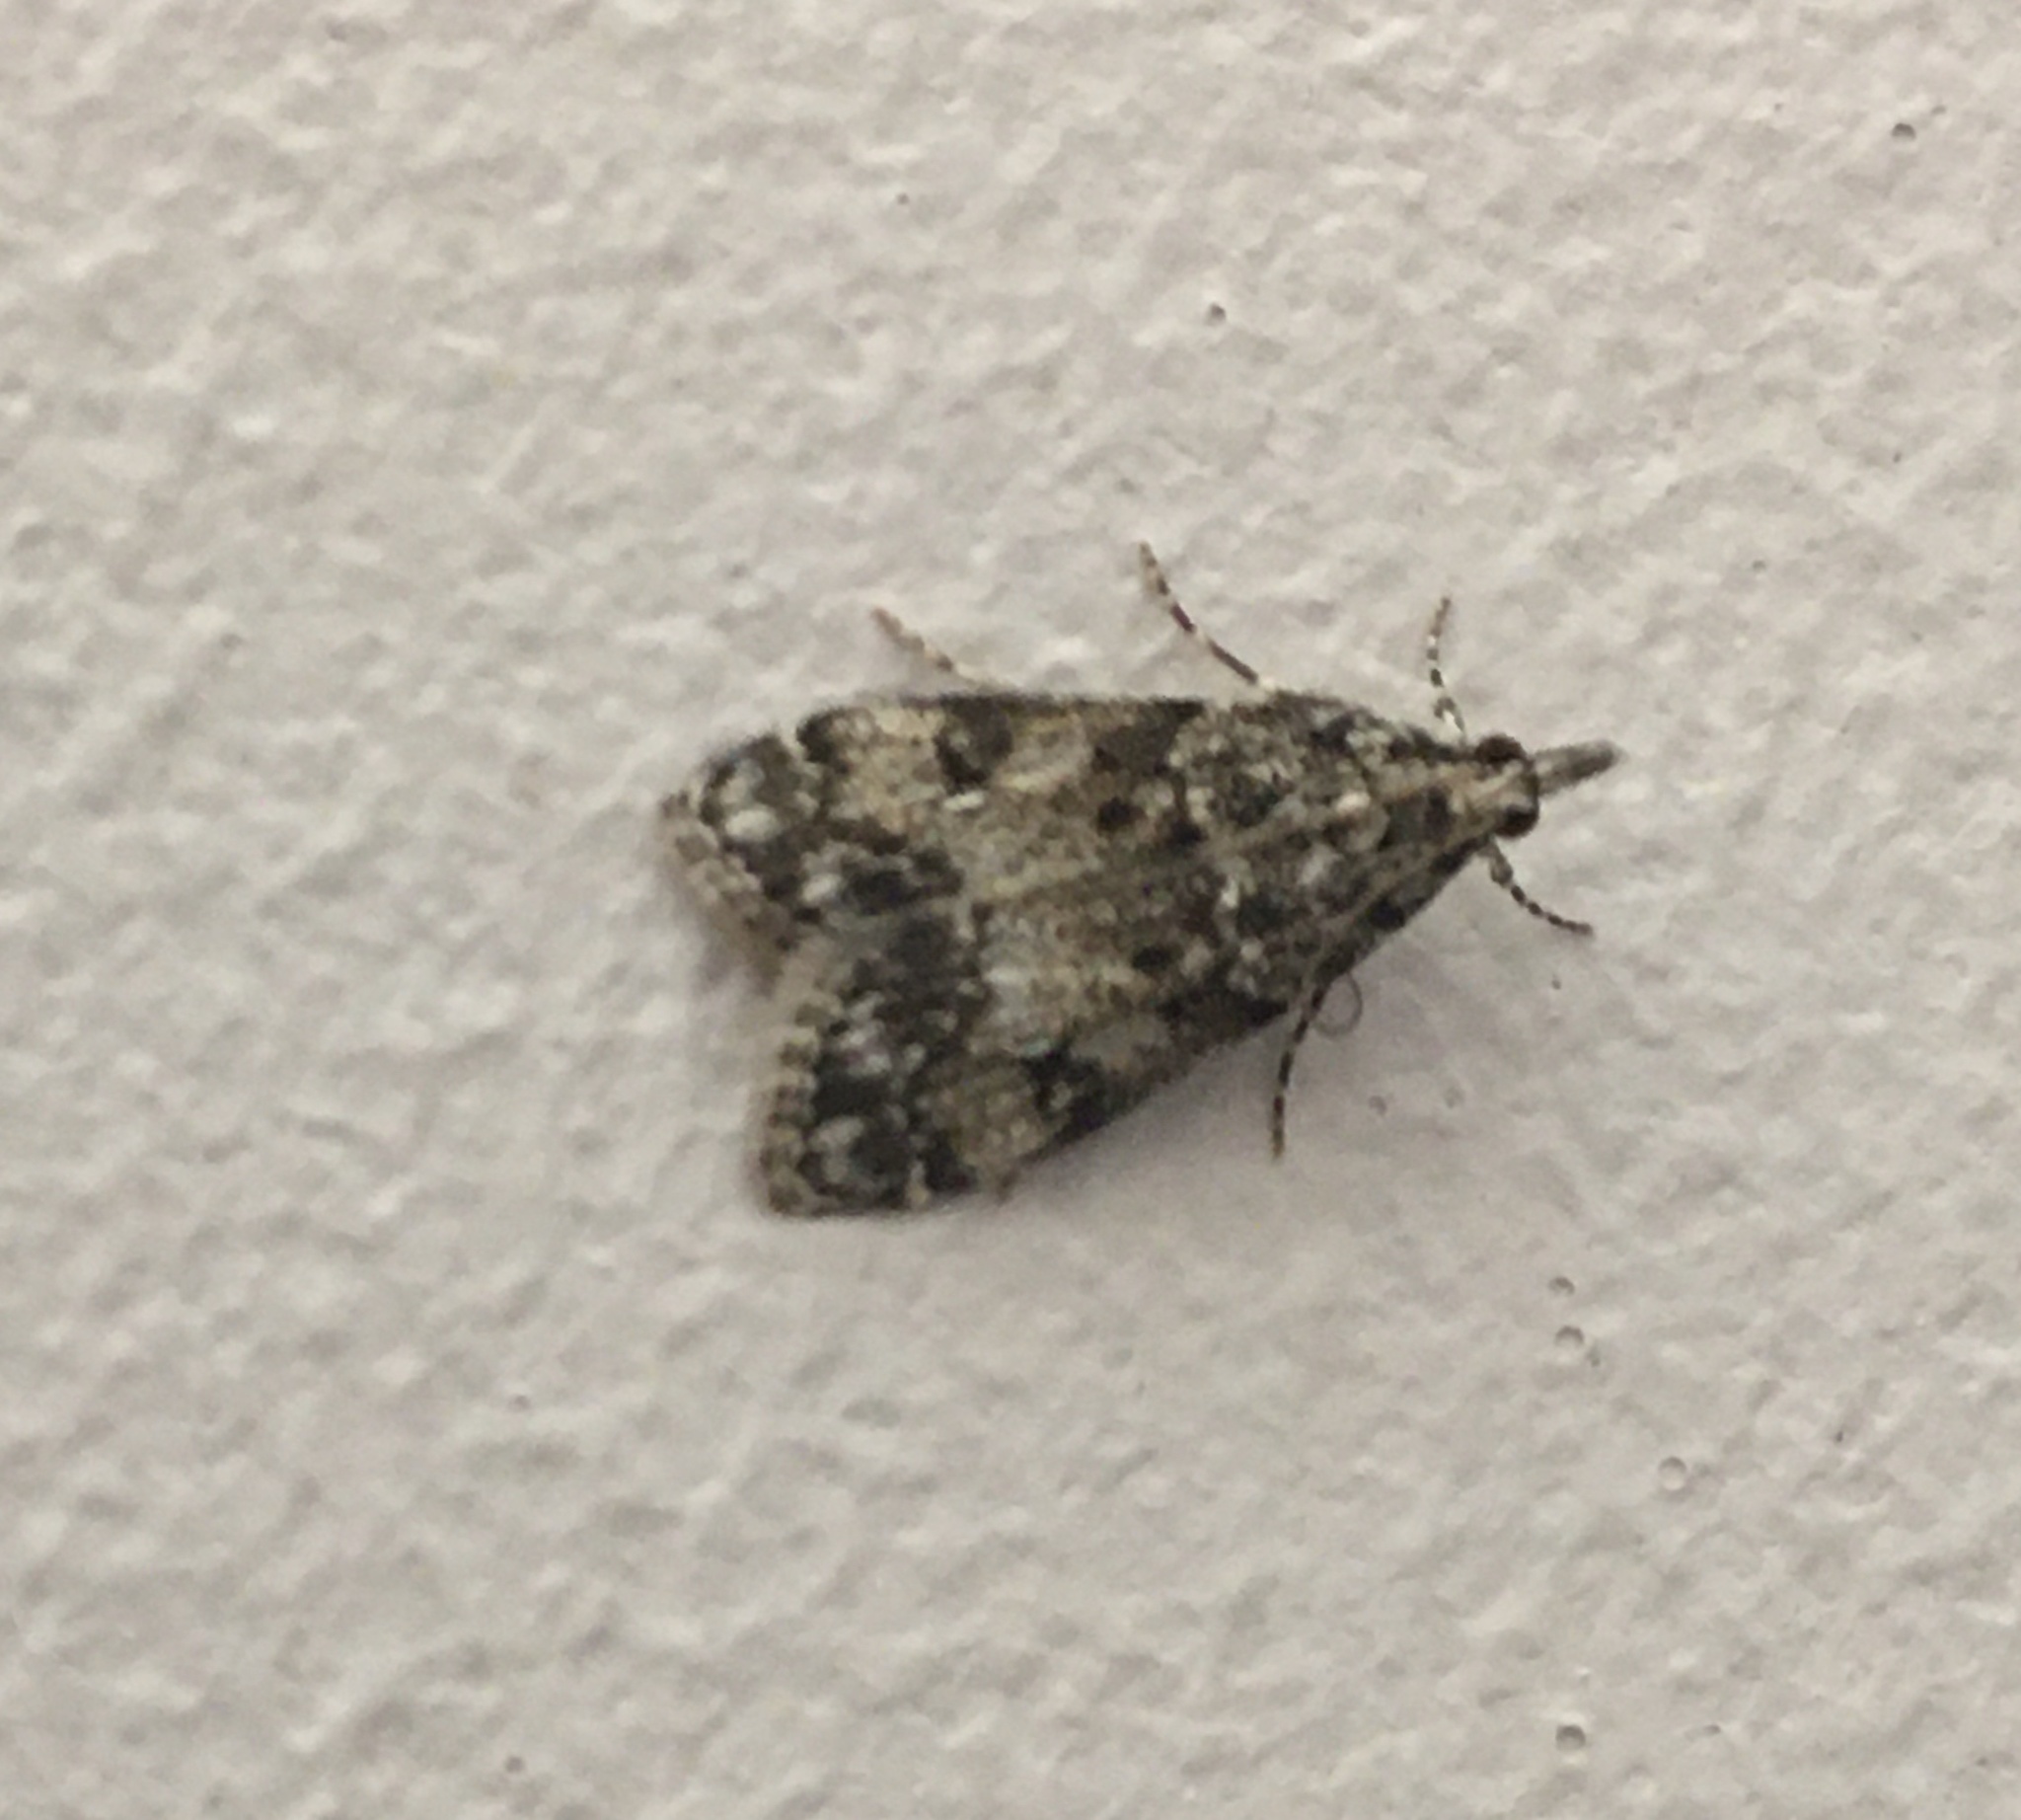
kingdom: Animalia
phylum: Arthropoda
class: Insecta
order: Lepidoptera
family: Crambidae
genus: Eudonia
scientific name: Eudonia lacustrata
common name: Little grey
